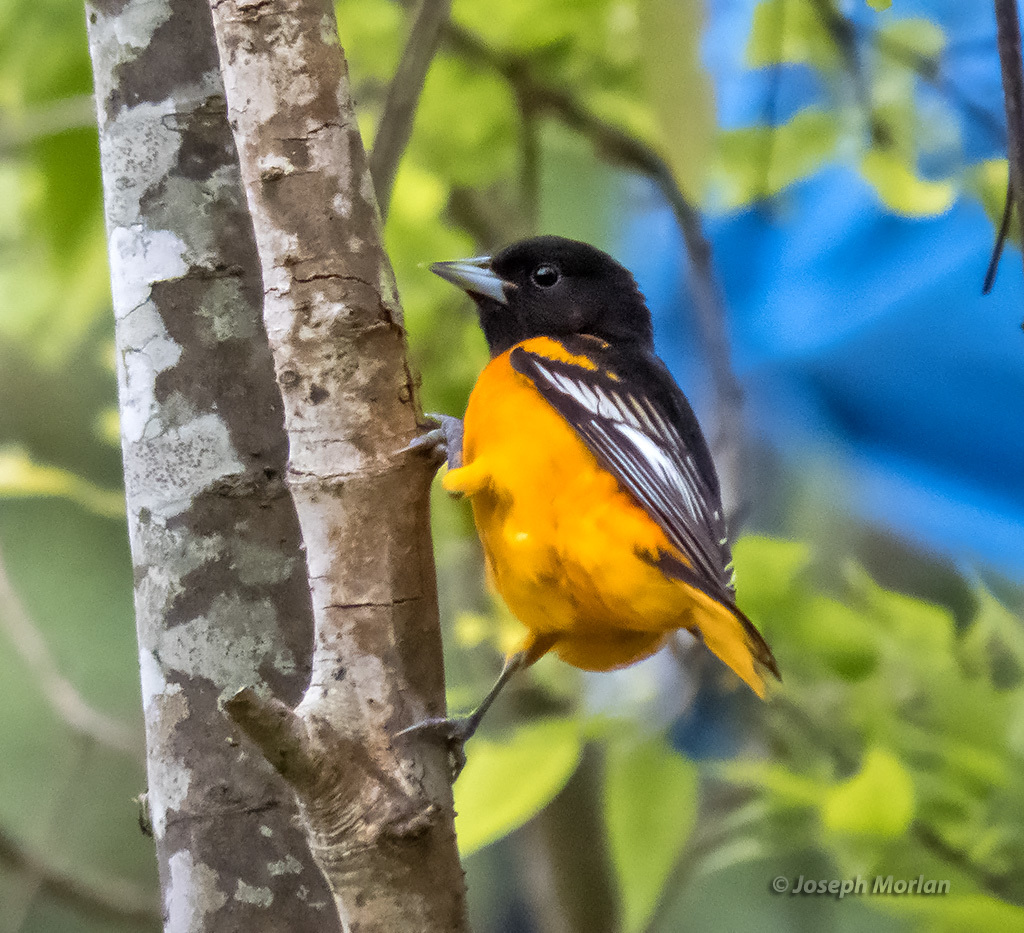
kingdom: Animalia
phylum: Chordata
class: Aves
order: Passeriformes
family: Icteridae
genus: Icterus
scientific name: Icterus galbula
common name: Baltimore oriole
